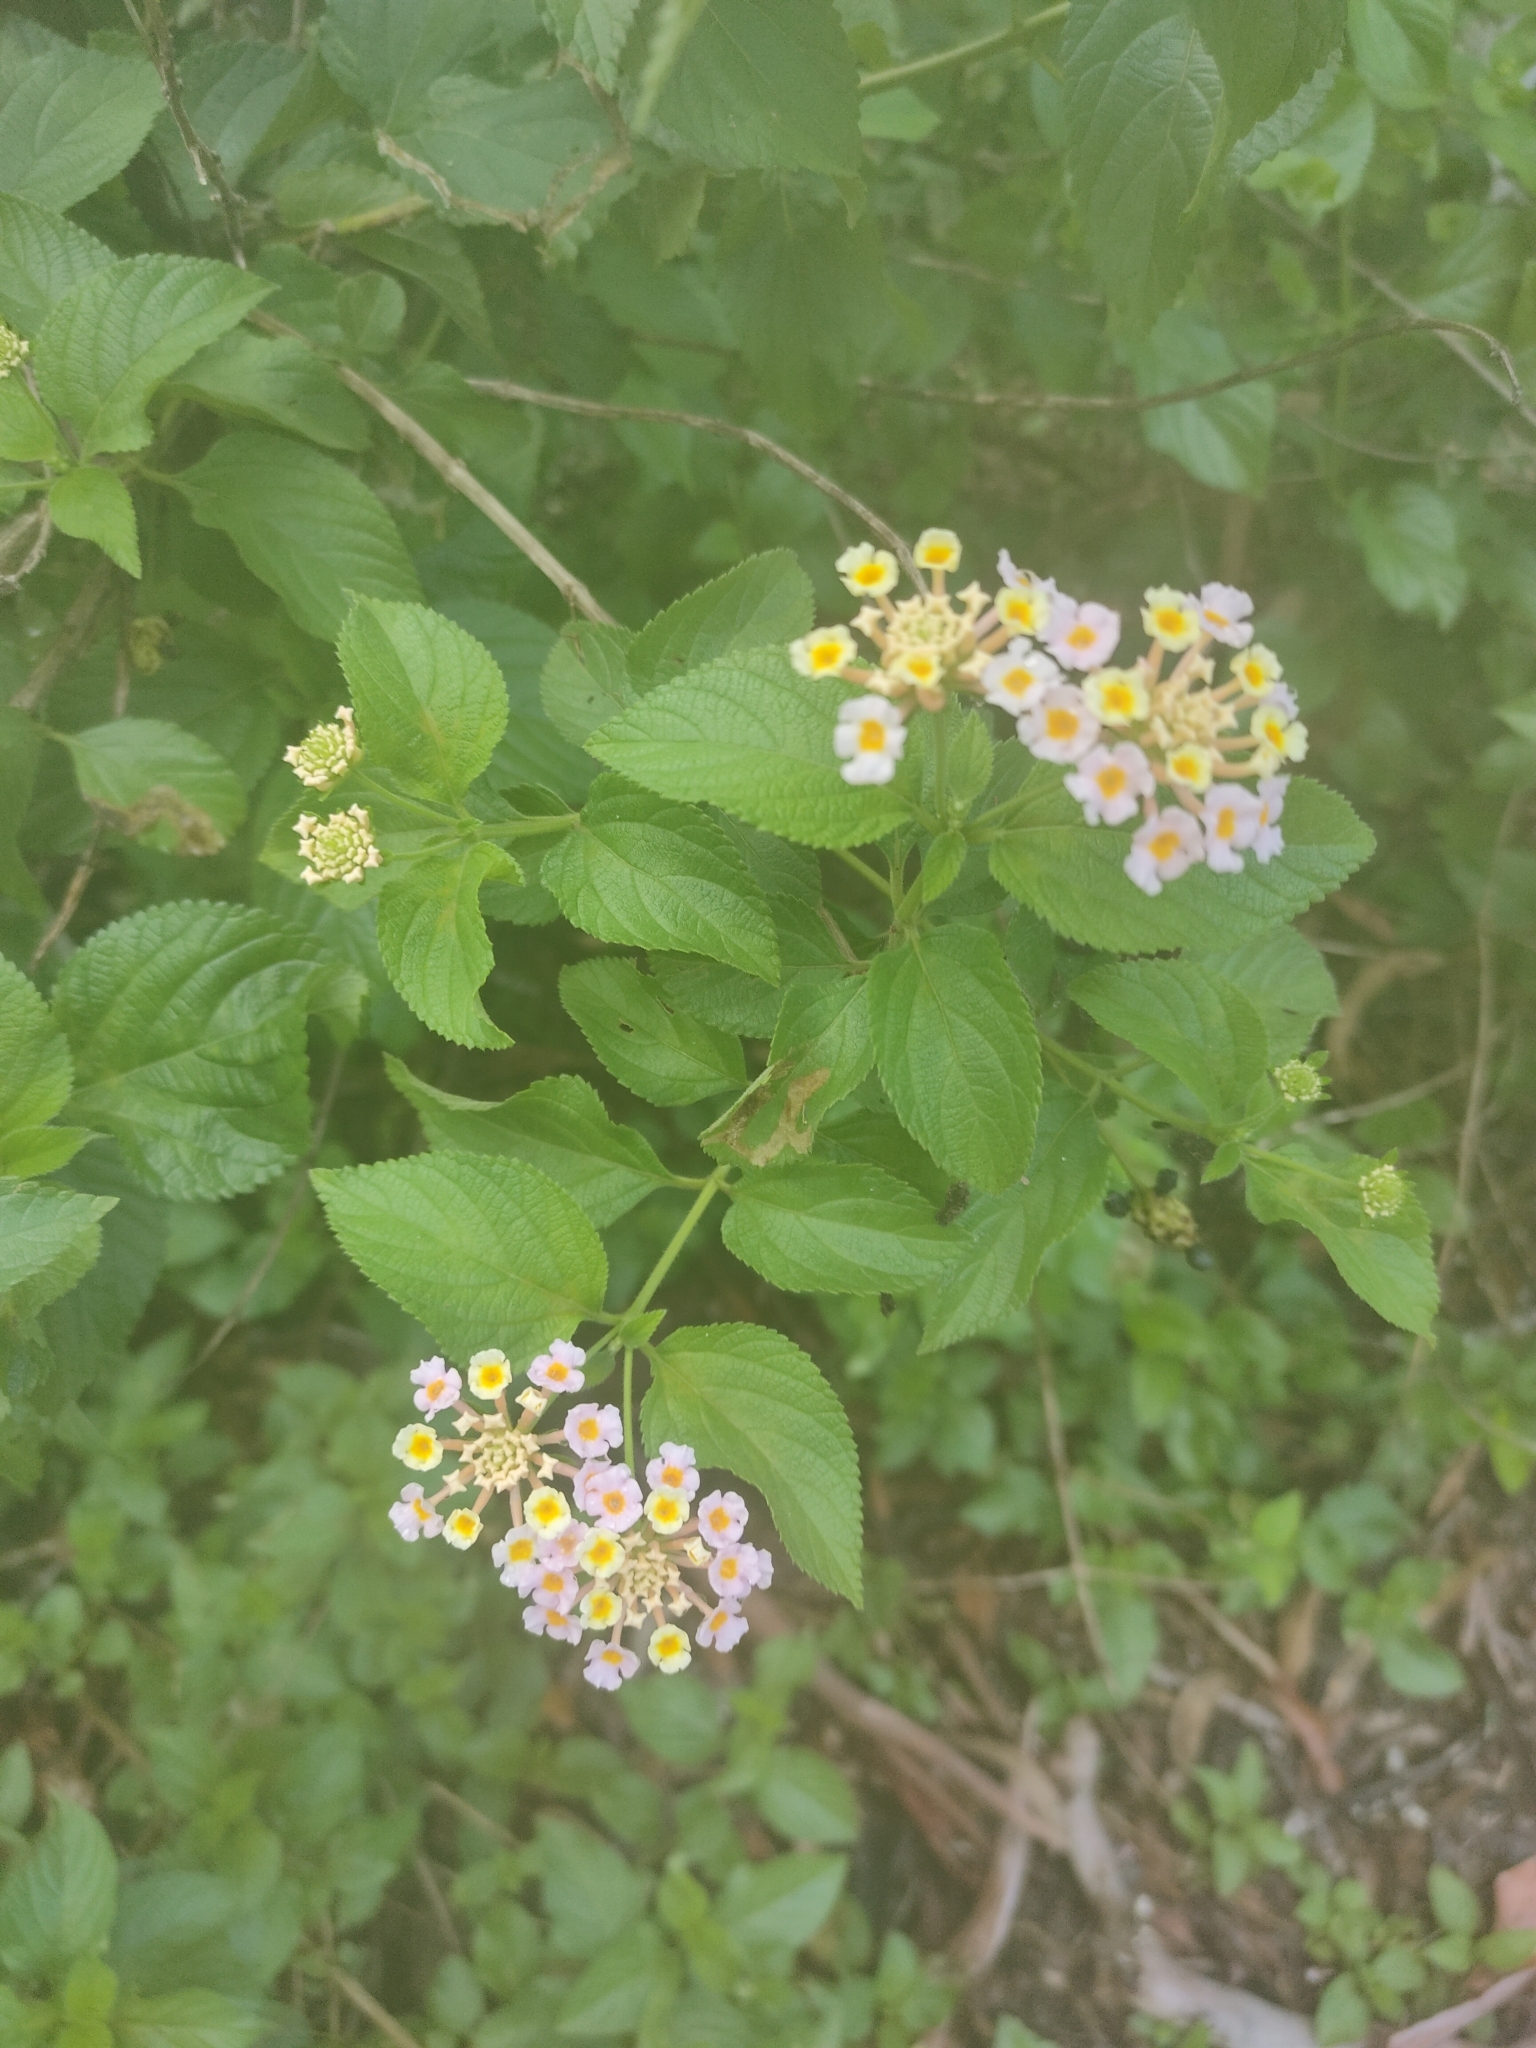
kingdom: Plantae
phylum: Tracheophyta
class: Magnoliopsida
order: Lamiales
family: Verbenaceae
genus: Lantana
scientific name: Lantana camara
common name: Lantana
